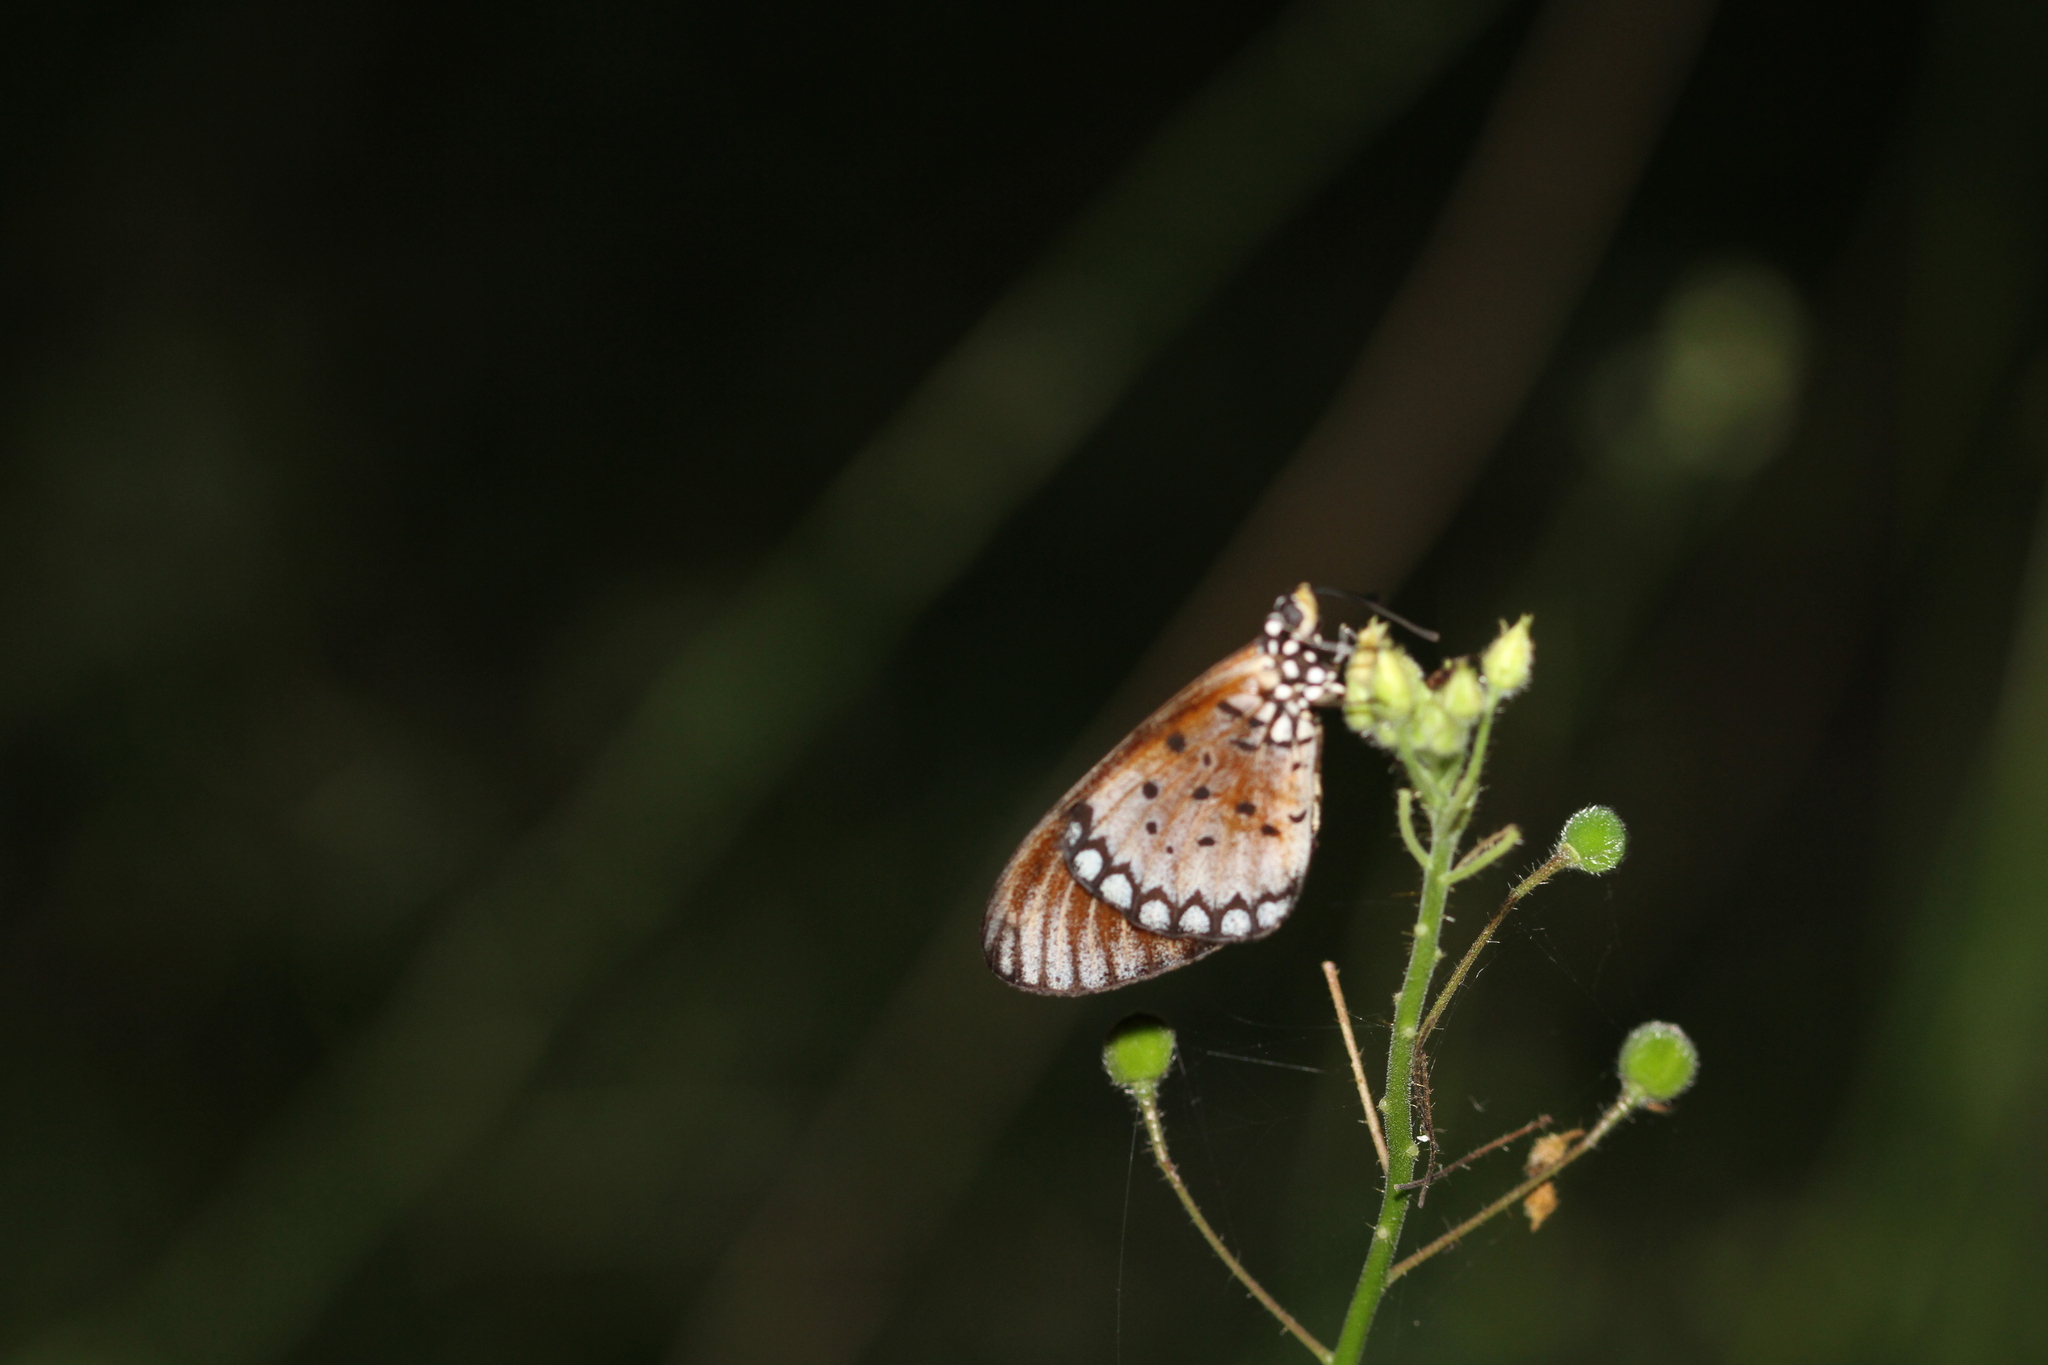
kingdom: Animalia
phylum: Arthropoda
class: Insecta
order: Lepidoptera
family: Nymphalidae
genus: Acraea
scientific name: Acraea terpsicore
